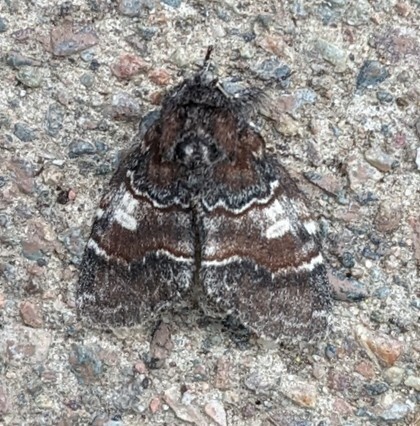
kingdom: Animalia
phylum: Arthropoda
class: Insecta
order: Lepidoptera
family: Notodontidae
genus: Peridea
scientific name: Peridea ferruginea
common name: Chocolate prominent
